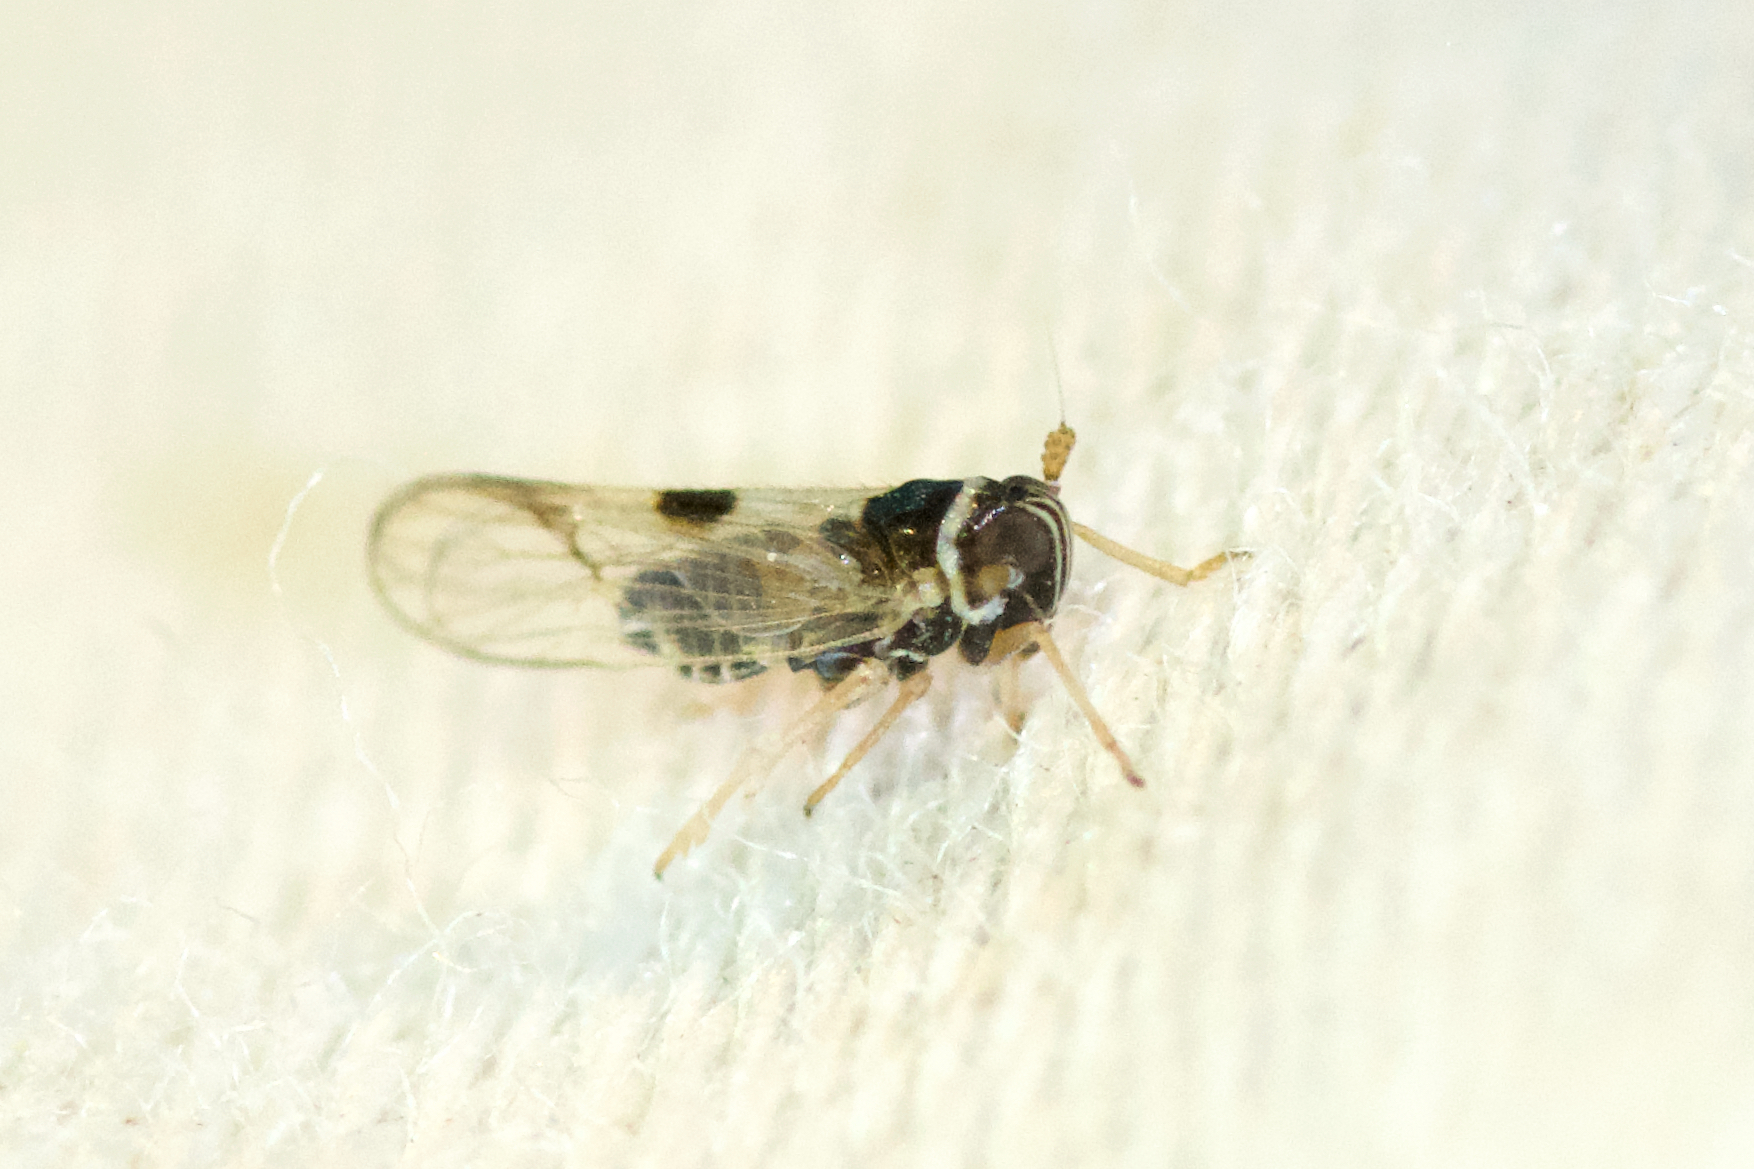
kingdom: Animalia
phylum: Arthropoda
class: Insecta
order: Hemiptera
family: Delphacidae
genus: Chionomus
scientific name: Chionomus
